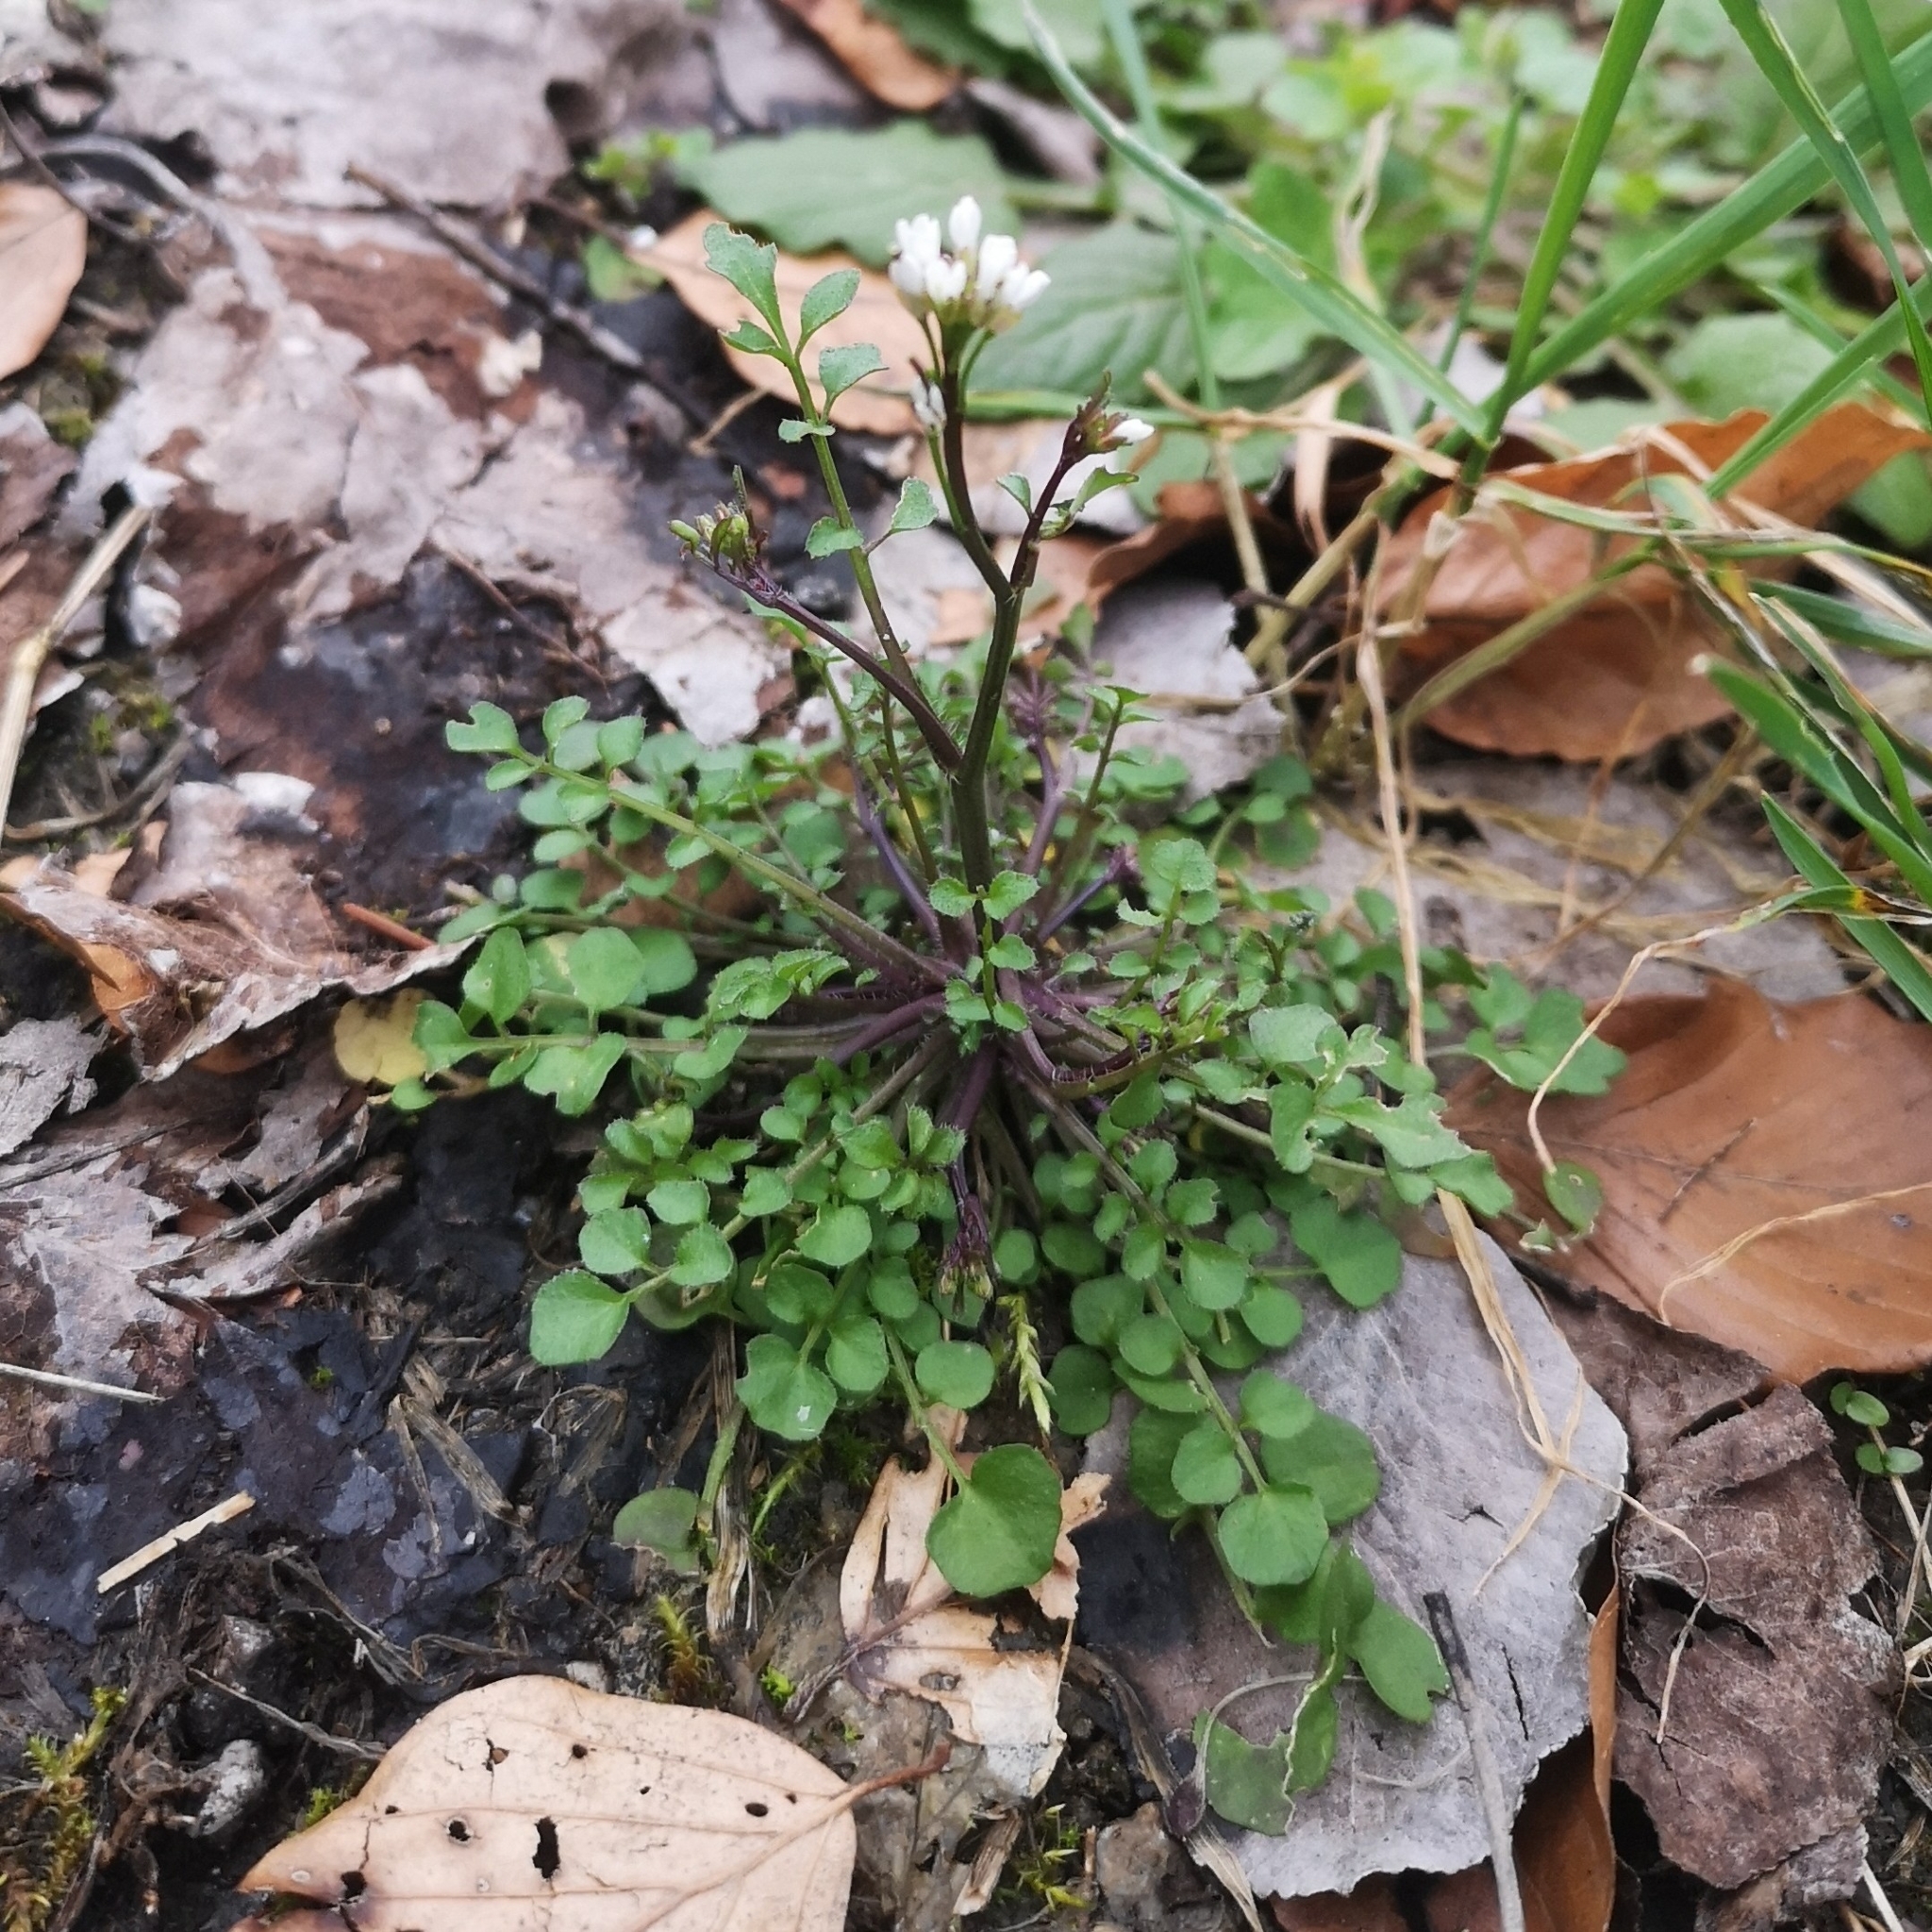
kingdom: Plantae
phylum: Tracheophyta
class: Magnoliopsida
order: Brassicales
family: Brassicaceae
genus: Cardamine
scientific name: Cardamine hirsuta
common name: Hairy bittercress
